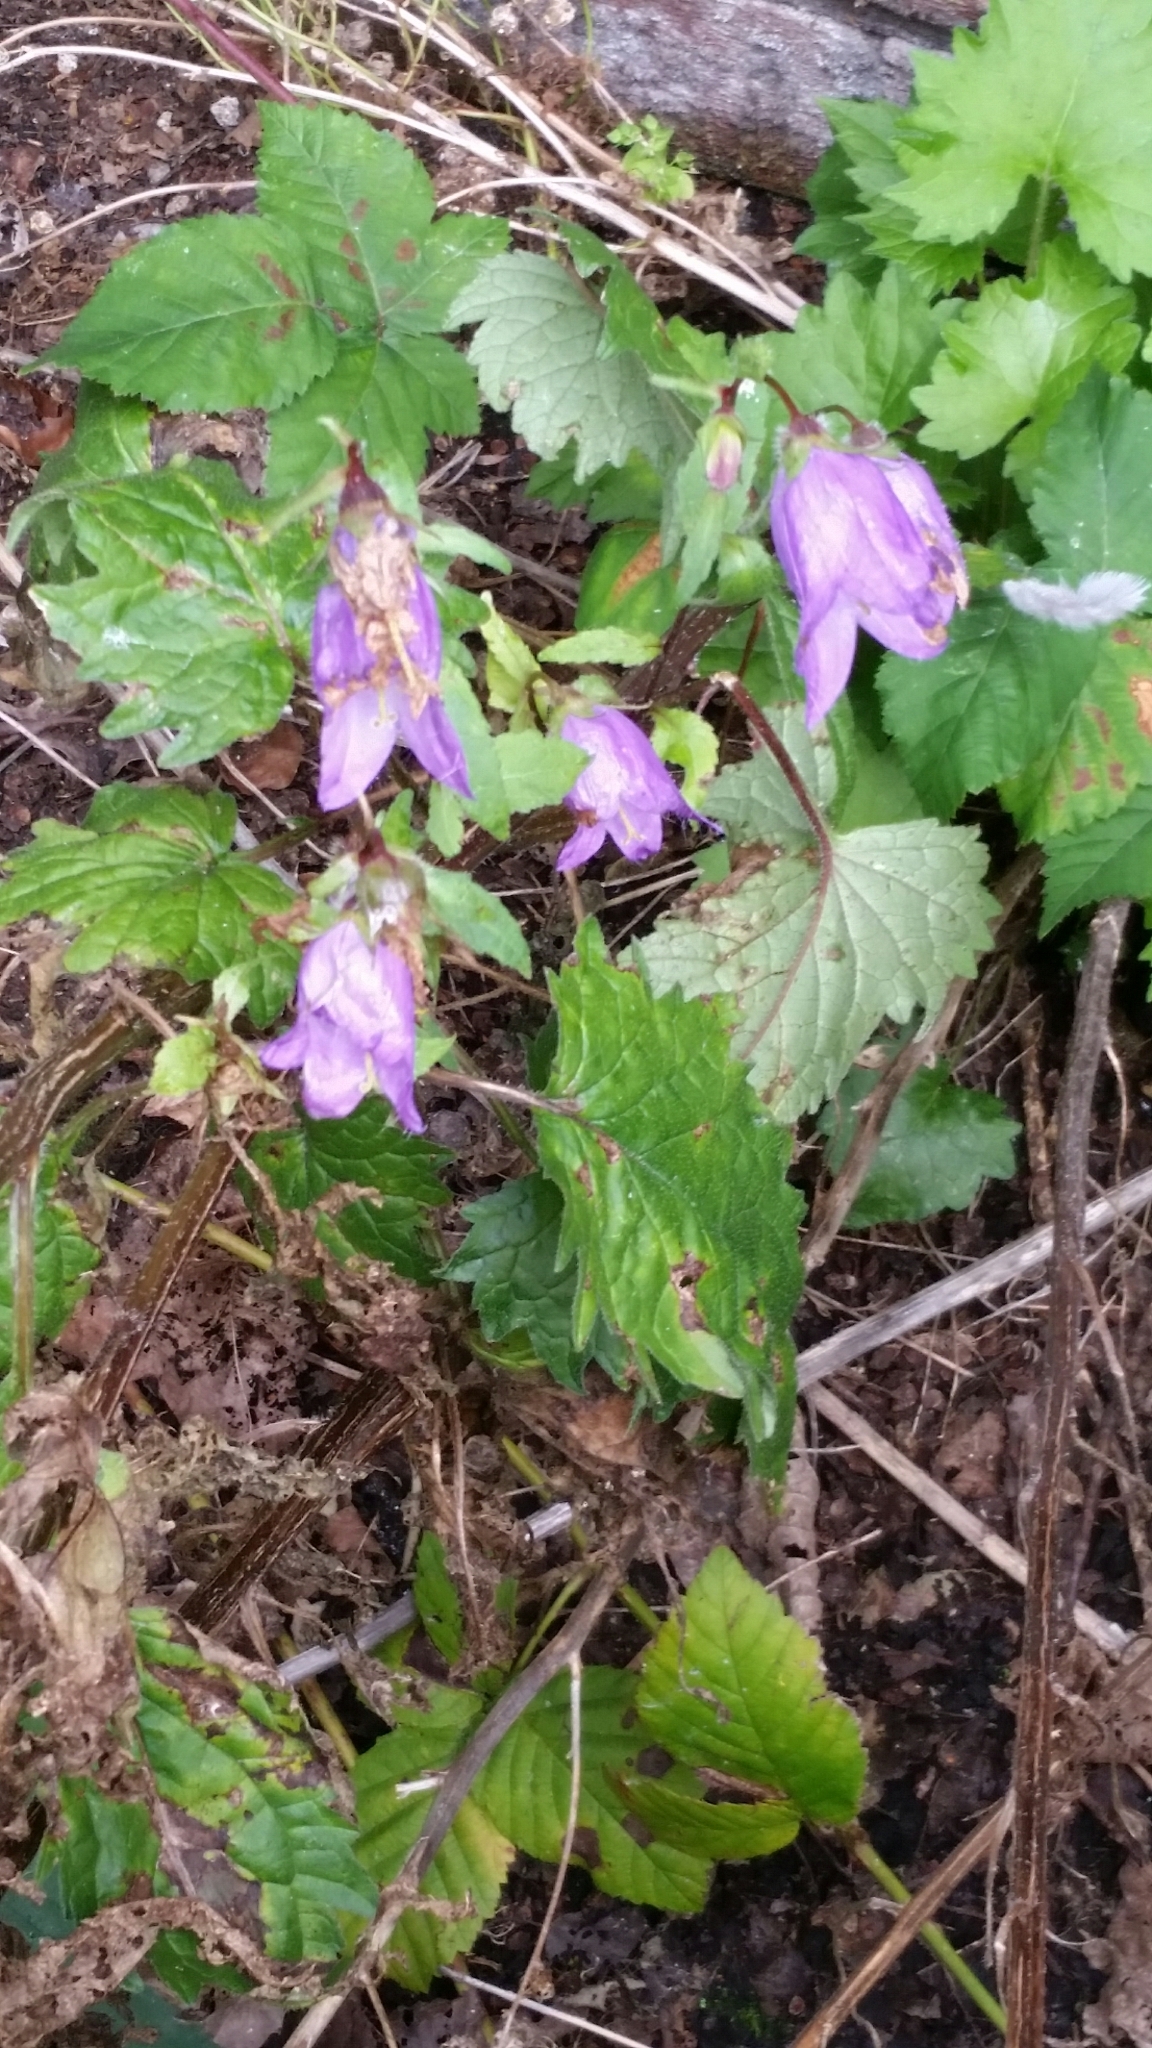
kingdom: Plantae
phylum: Tracheophyta
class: Magnoliopsida
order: Asterales
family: Campanulaceae
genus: Campanula
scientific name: Campanula trachelium
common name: Nettle-leaved bellflower
